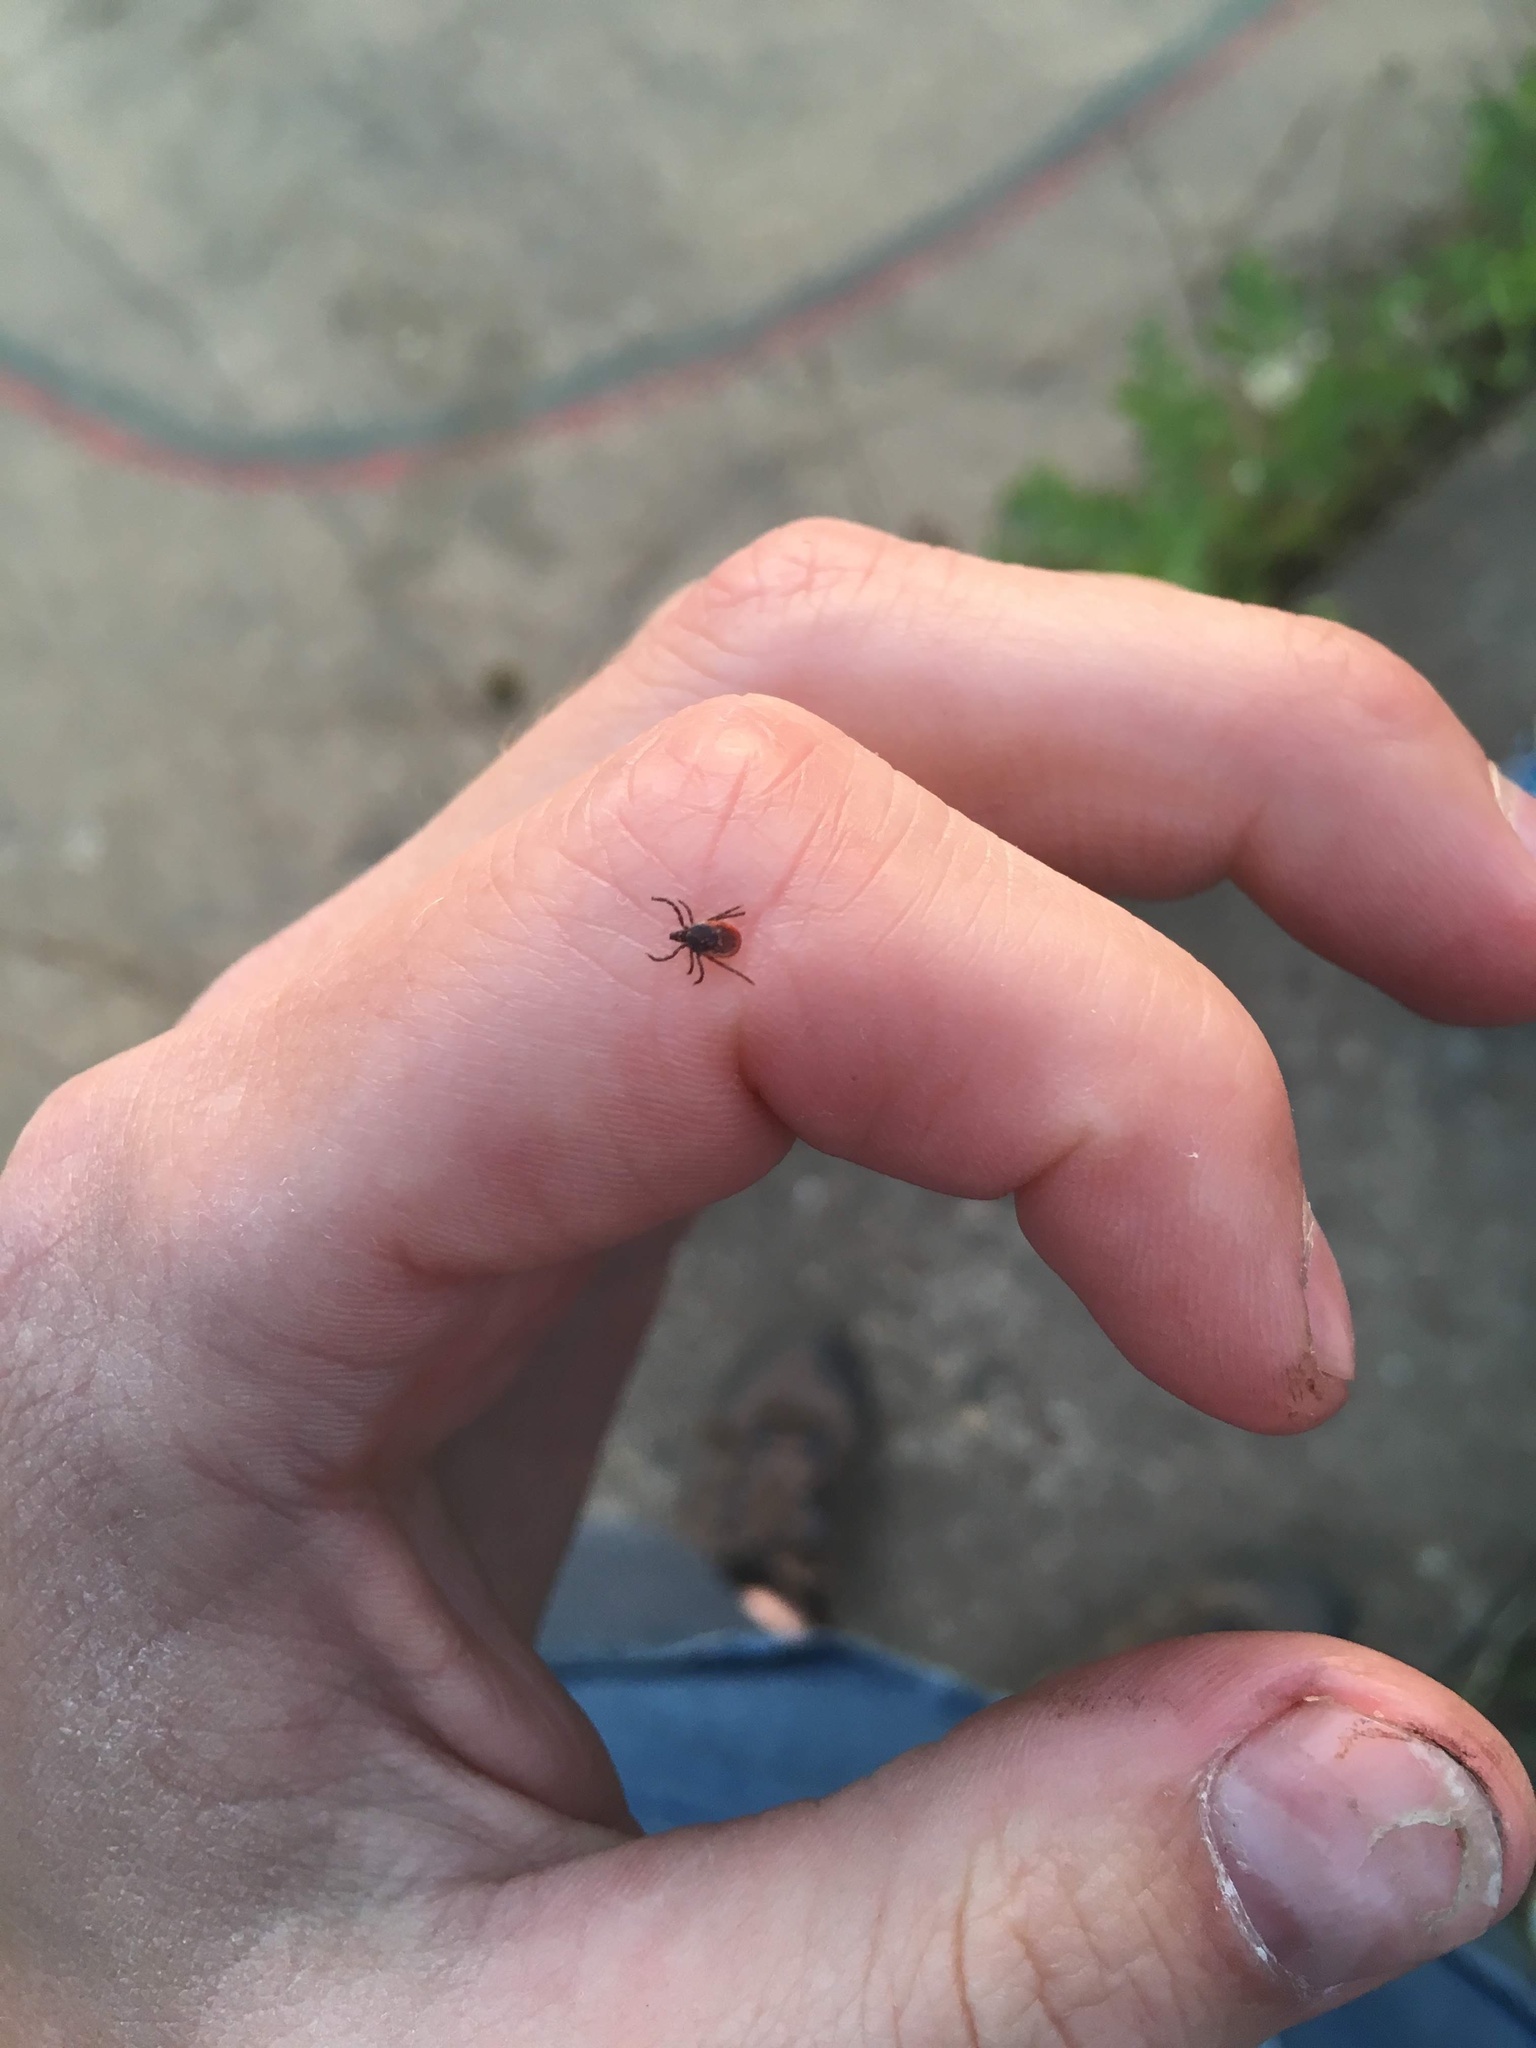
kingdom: Animalia
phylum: Arthropoda
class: Arachnida
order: Ixodida
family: Ixodidae
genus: Ixodes
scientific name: Ixodes ricinus
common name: Castor bean tick
